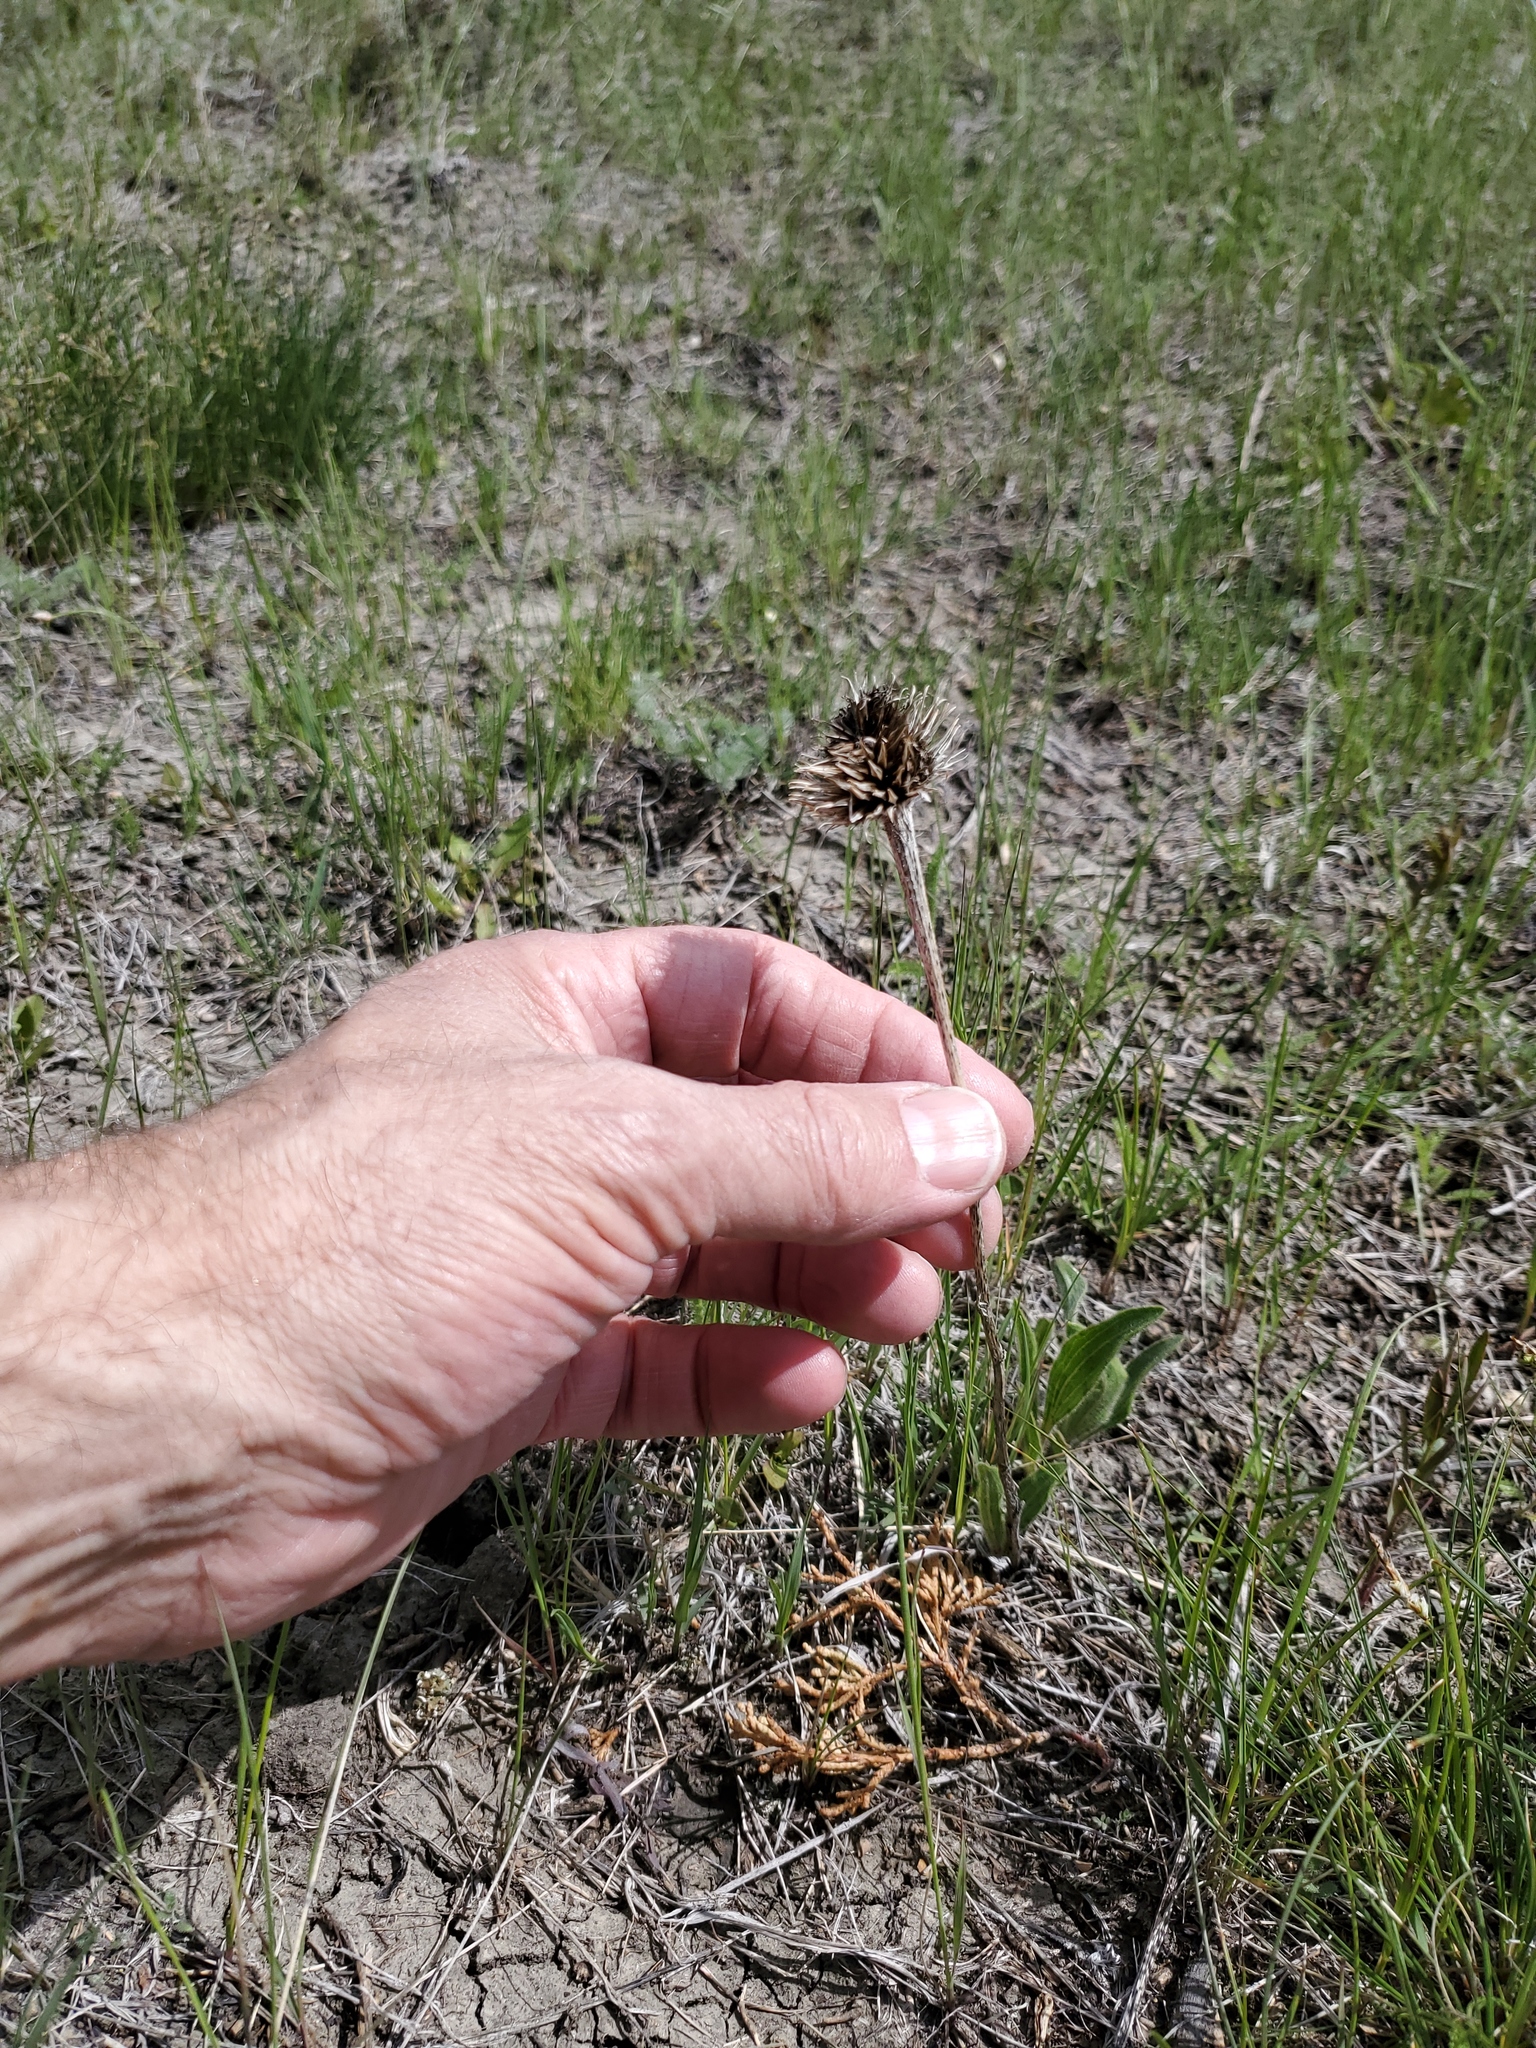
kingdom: Plantae
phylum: Tracheophyta
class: Magnoliopsida
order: Asterales
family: Asteraceae
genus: Echinacea
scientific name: Echinacea angustifolia
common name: Black-sampson echinacea
